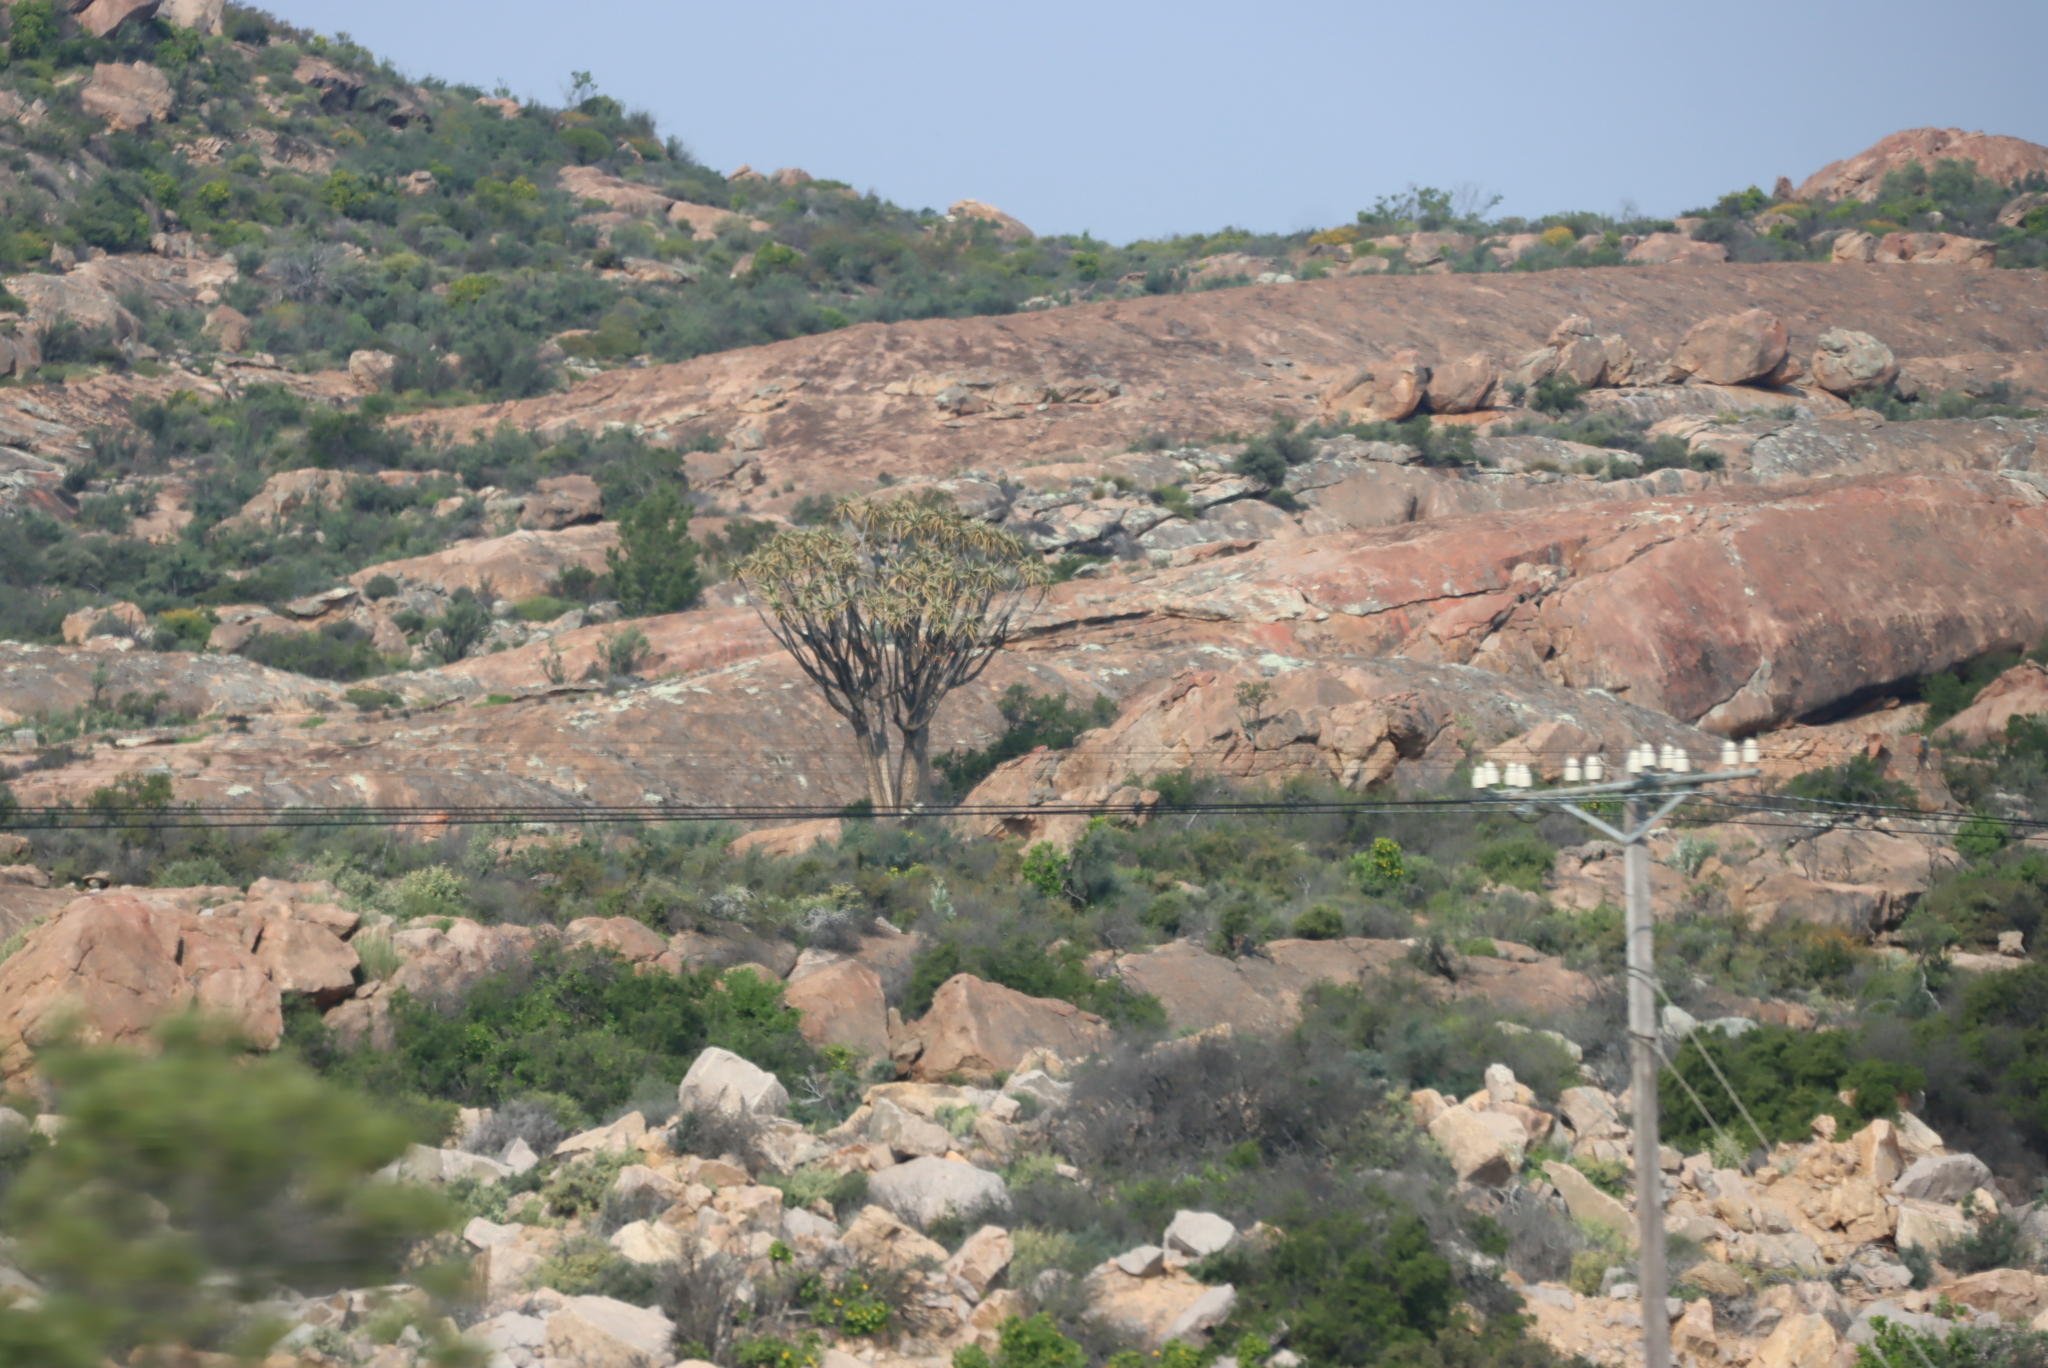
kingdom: Plantae
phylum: Tracheophyta
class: Liliopsida
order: Asparagales
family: Asphodelaceae
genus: Aloidendron
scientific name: Aloidendron dichotomum
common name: Quiver tree
